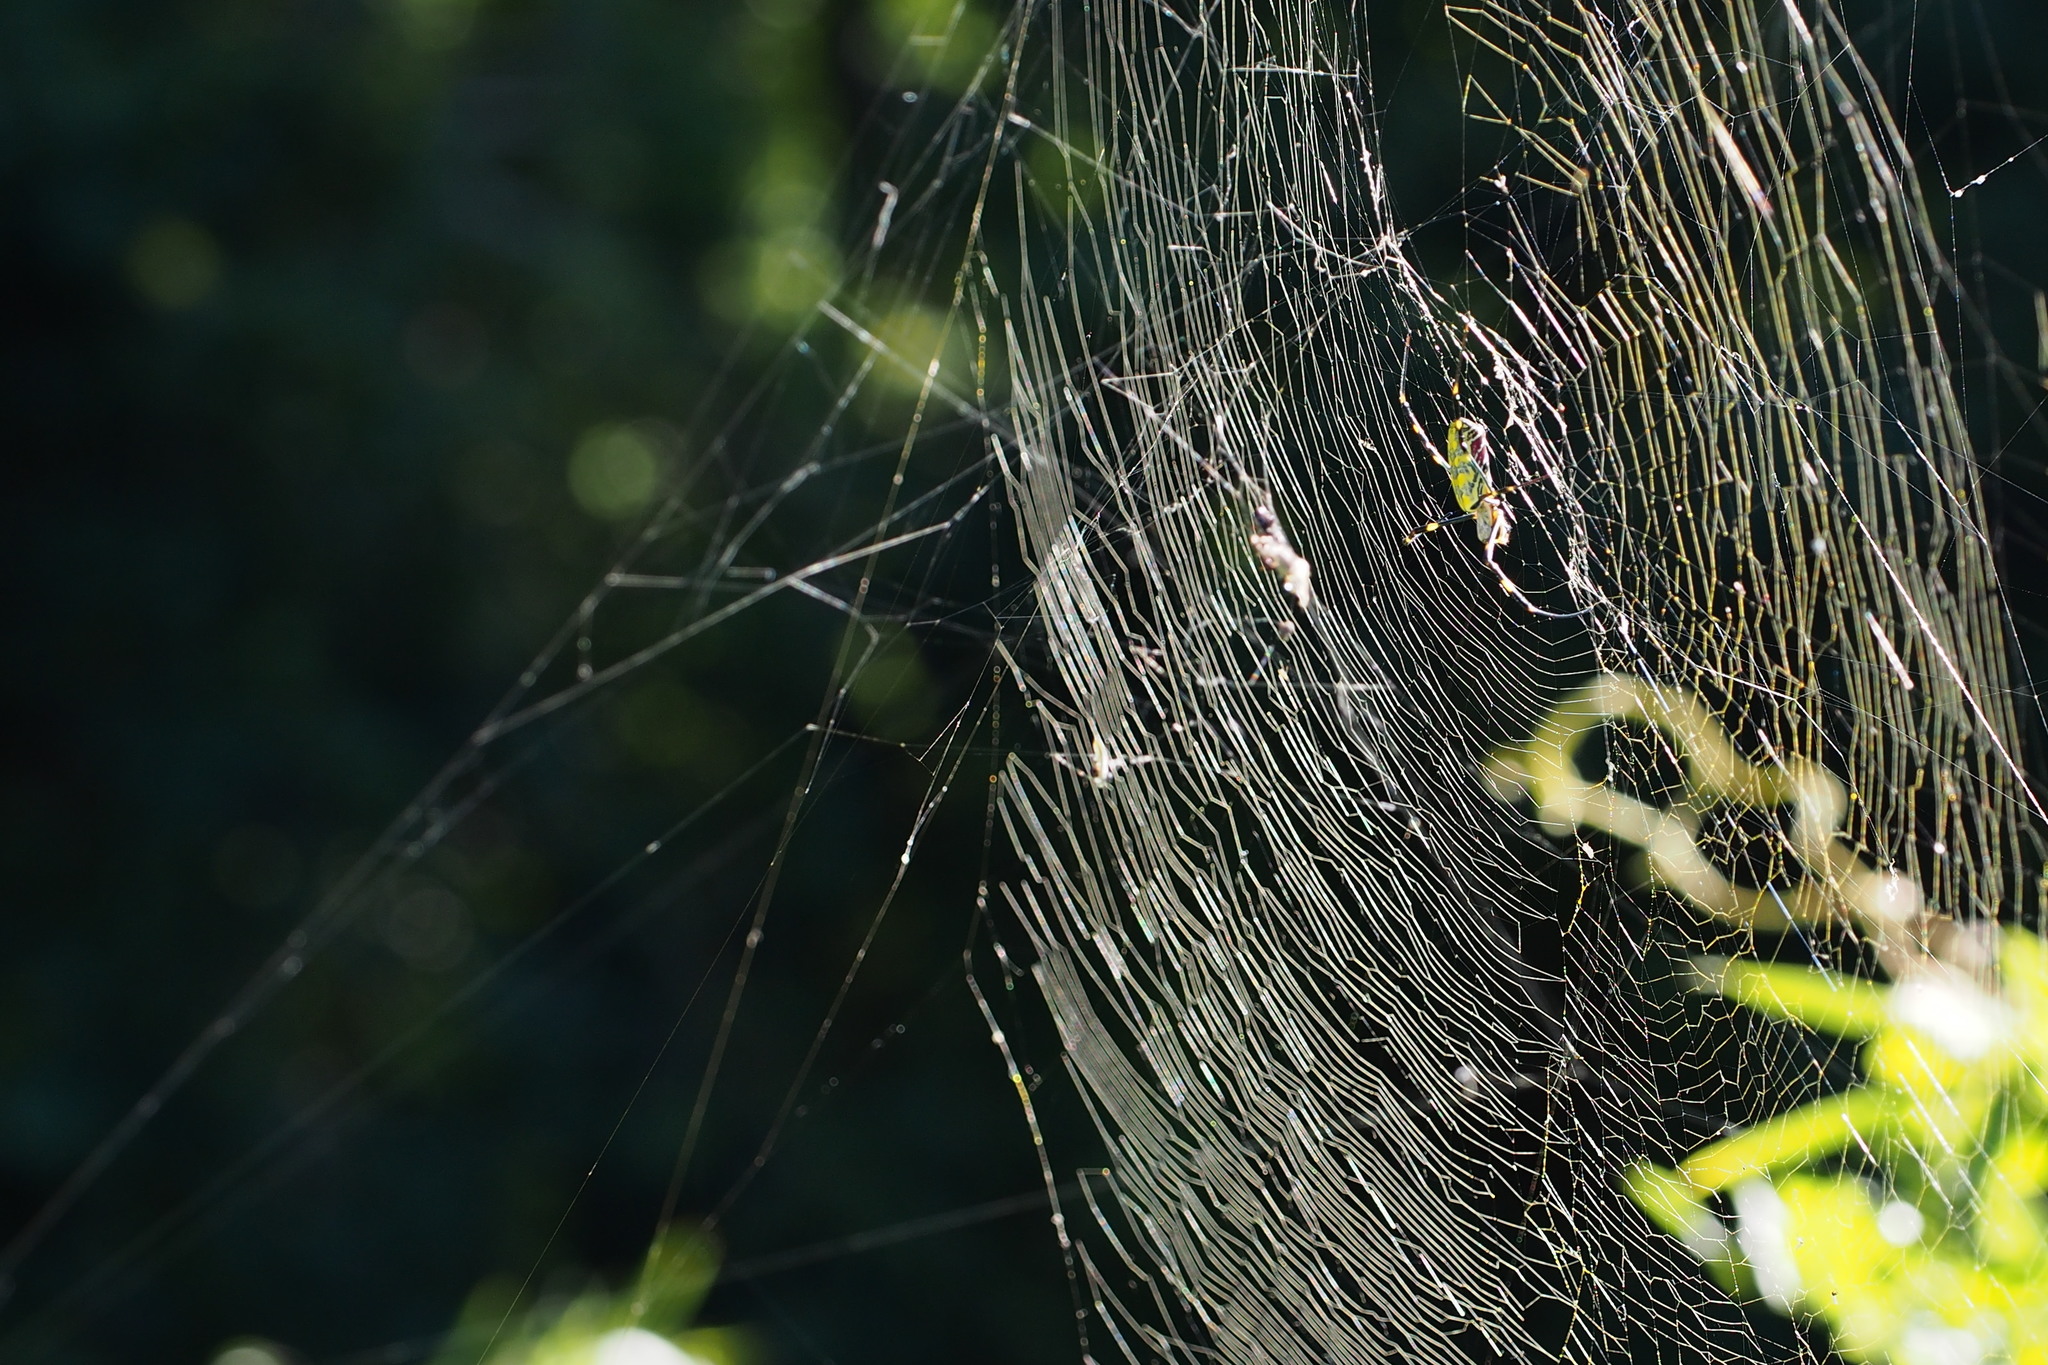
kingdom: Animalia
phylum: Arthropoda
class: Arachnida
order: Araneae
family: Araneidae
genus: Trichonephila
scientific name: Trichonephila clavata
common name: Jorō spider
